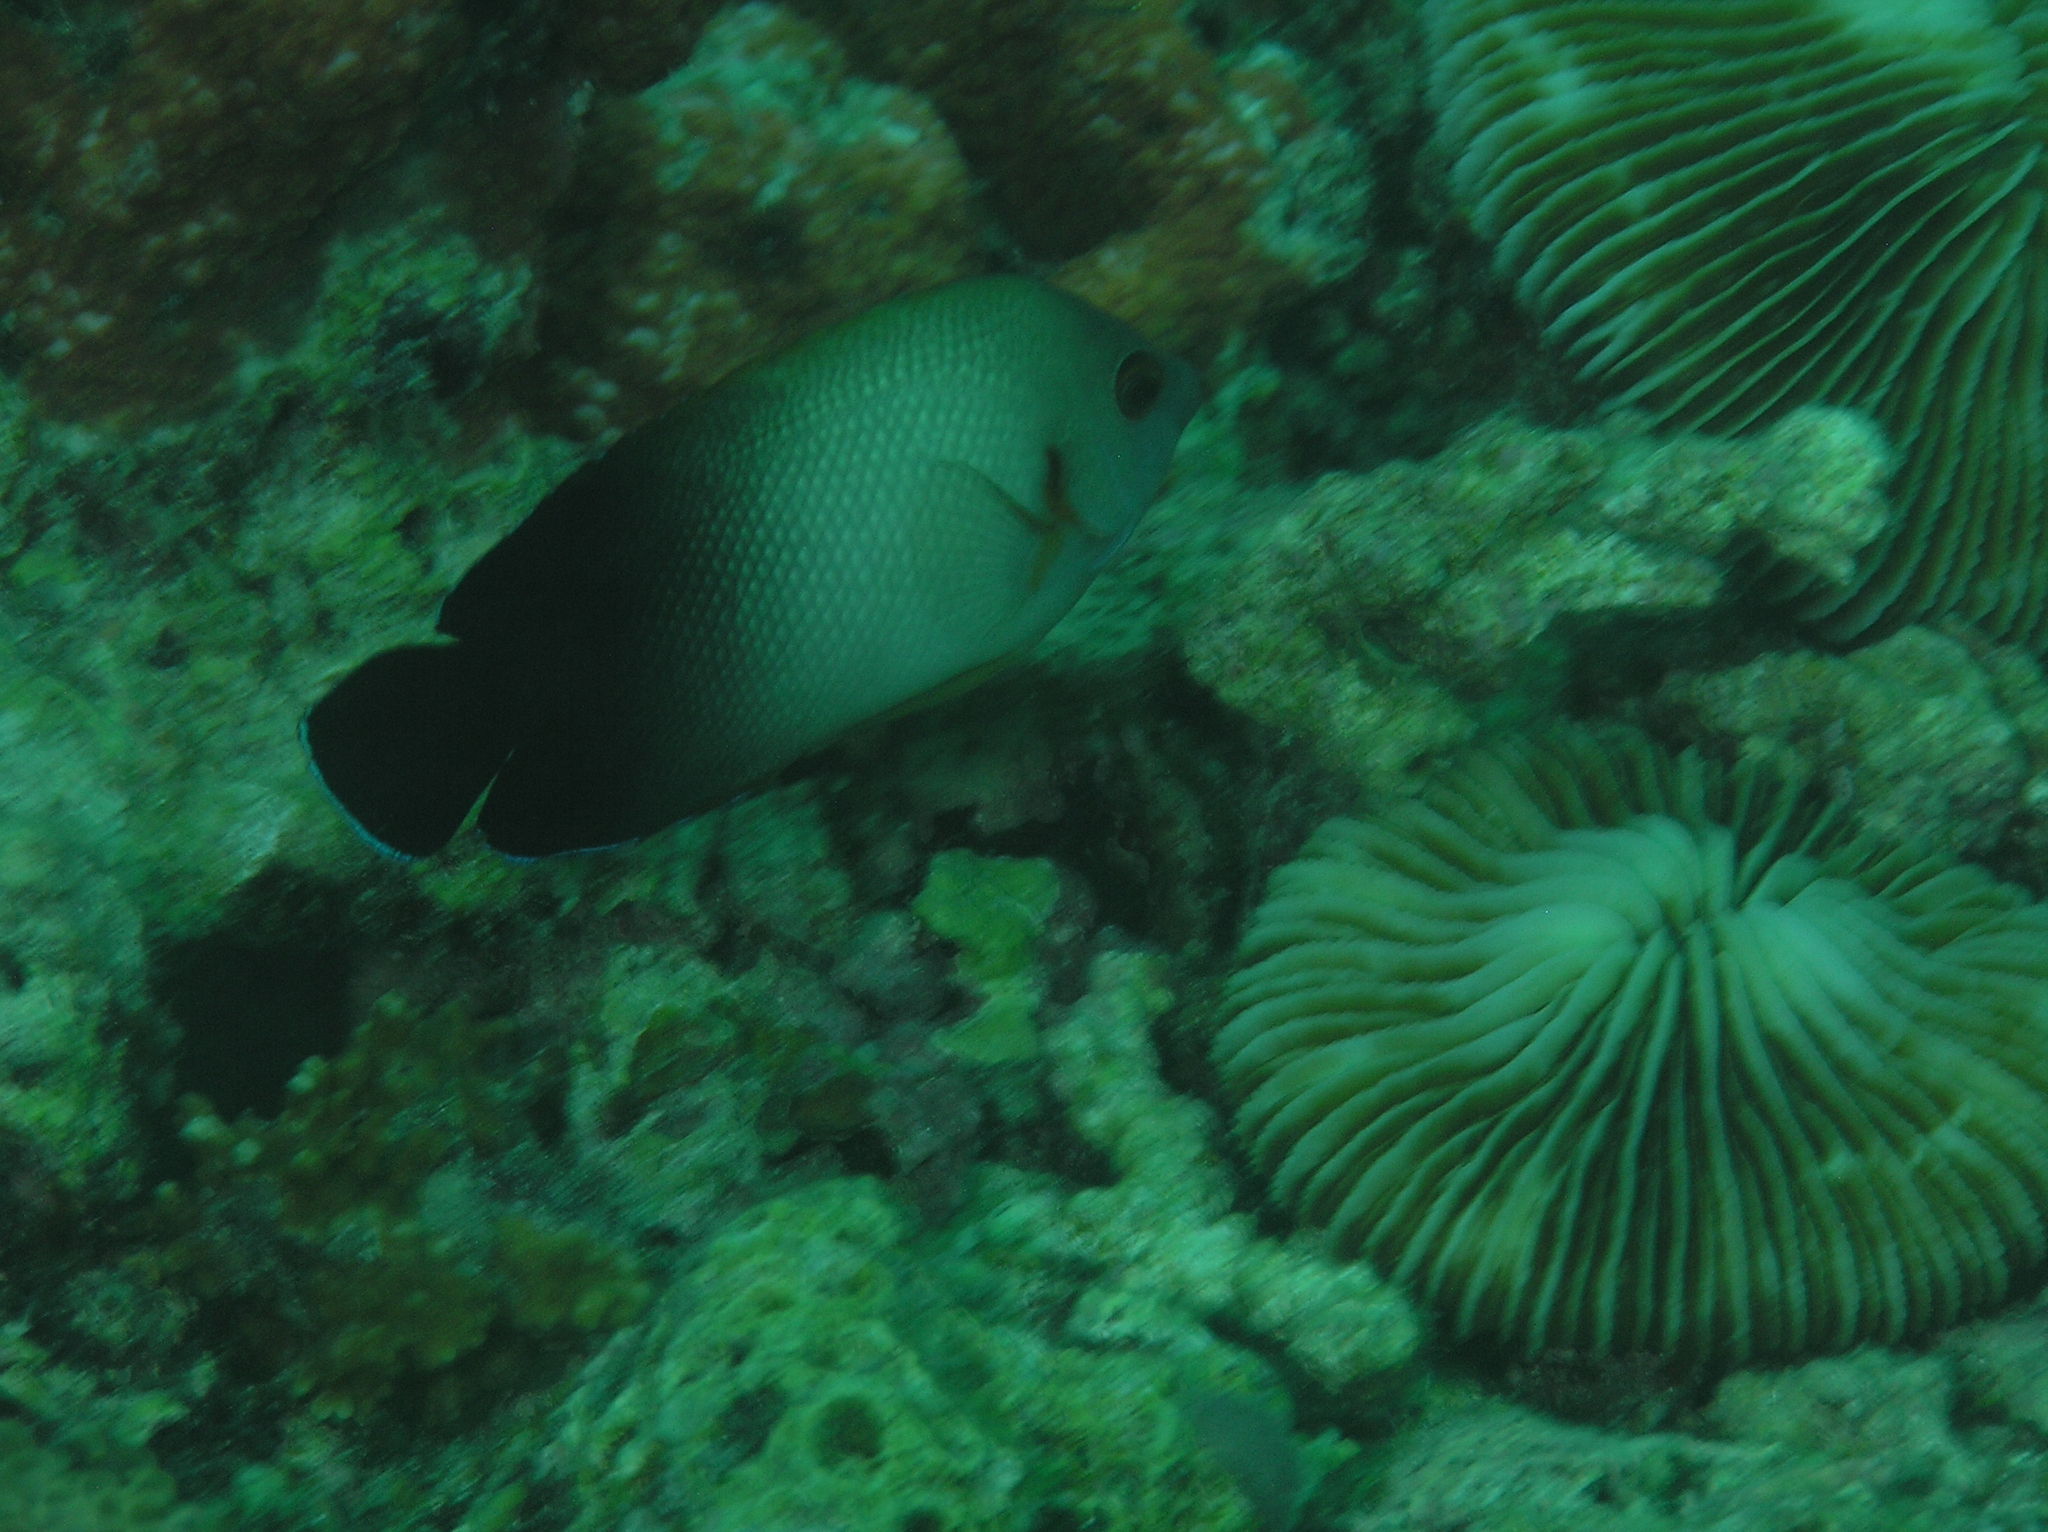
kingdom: Animalia
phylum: Chordata
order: Perciformes
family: Pomacanthidae
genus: Centropyge
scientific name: Centropyge vrolikii
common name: Pearlscale angelfish
